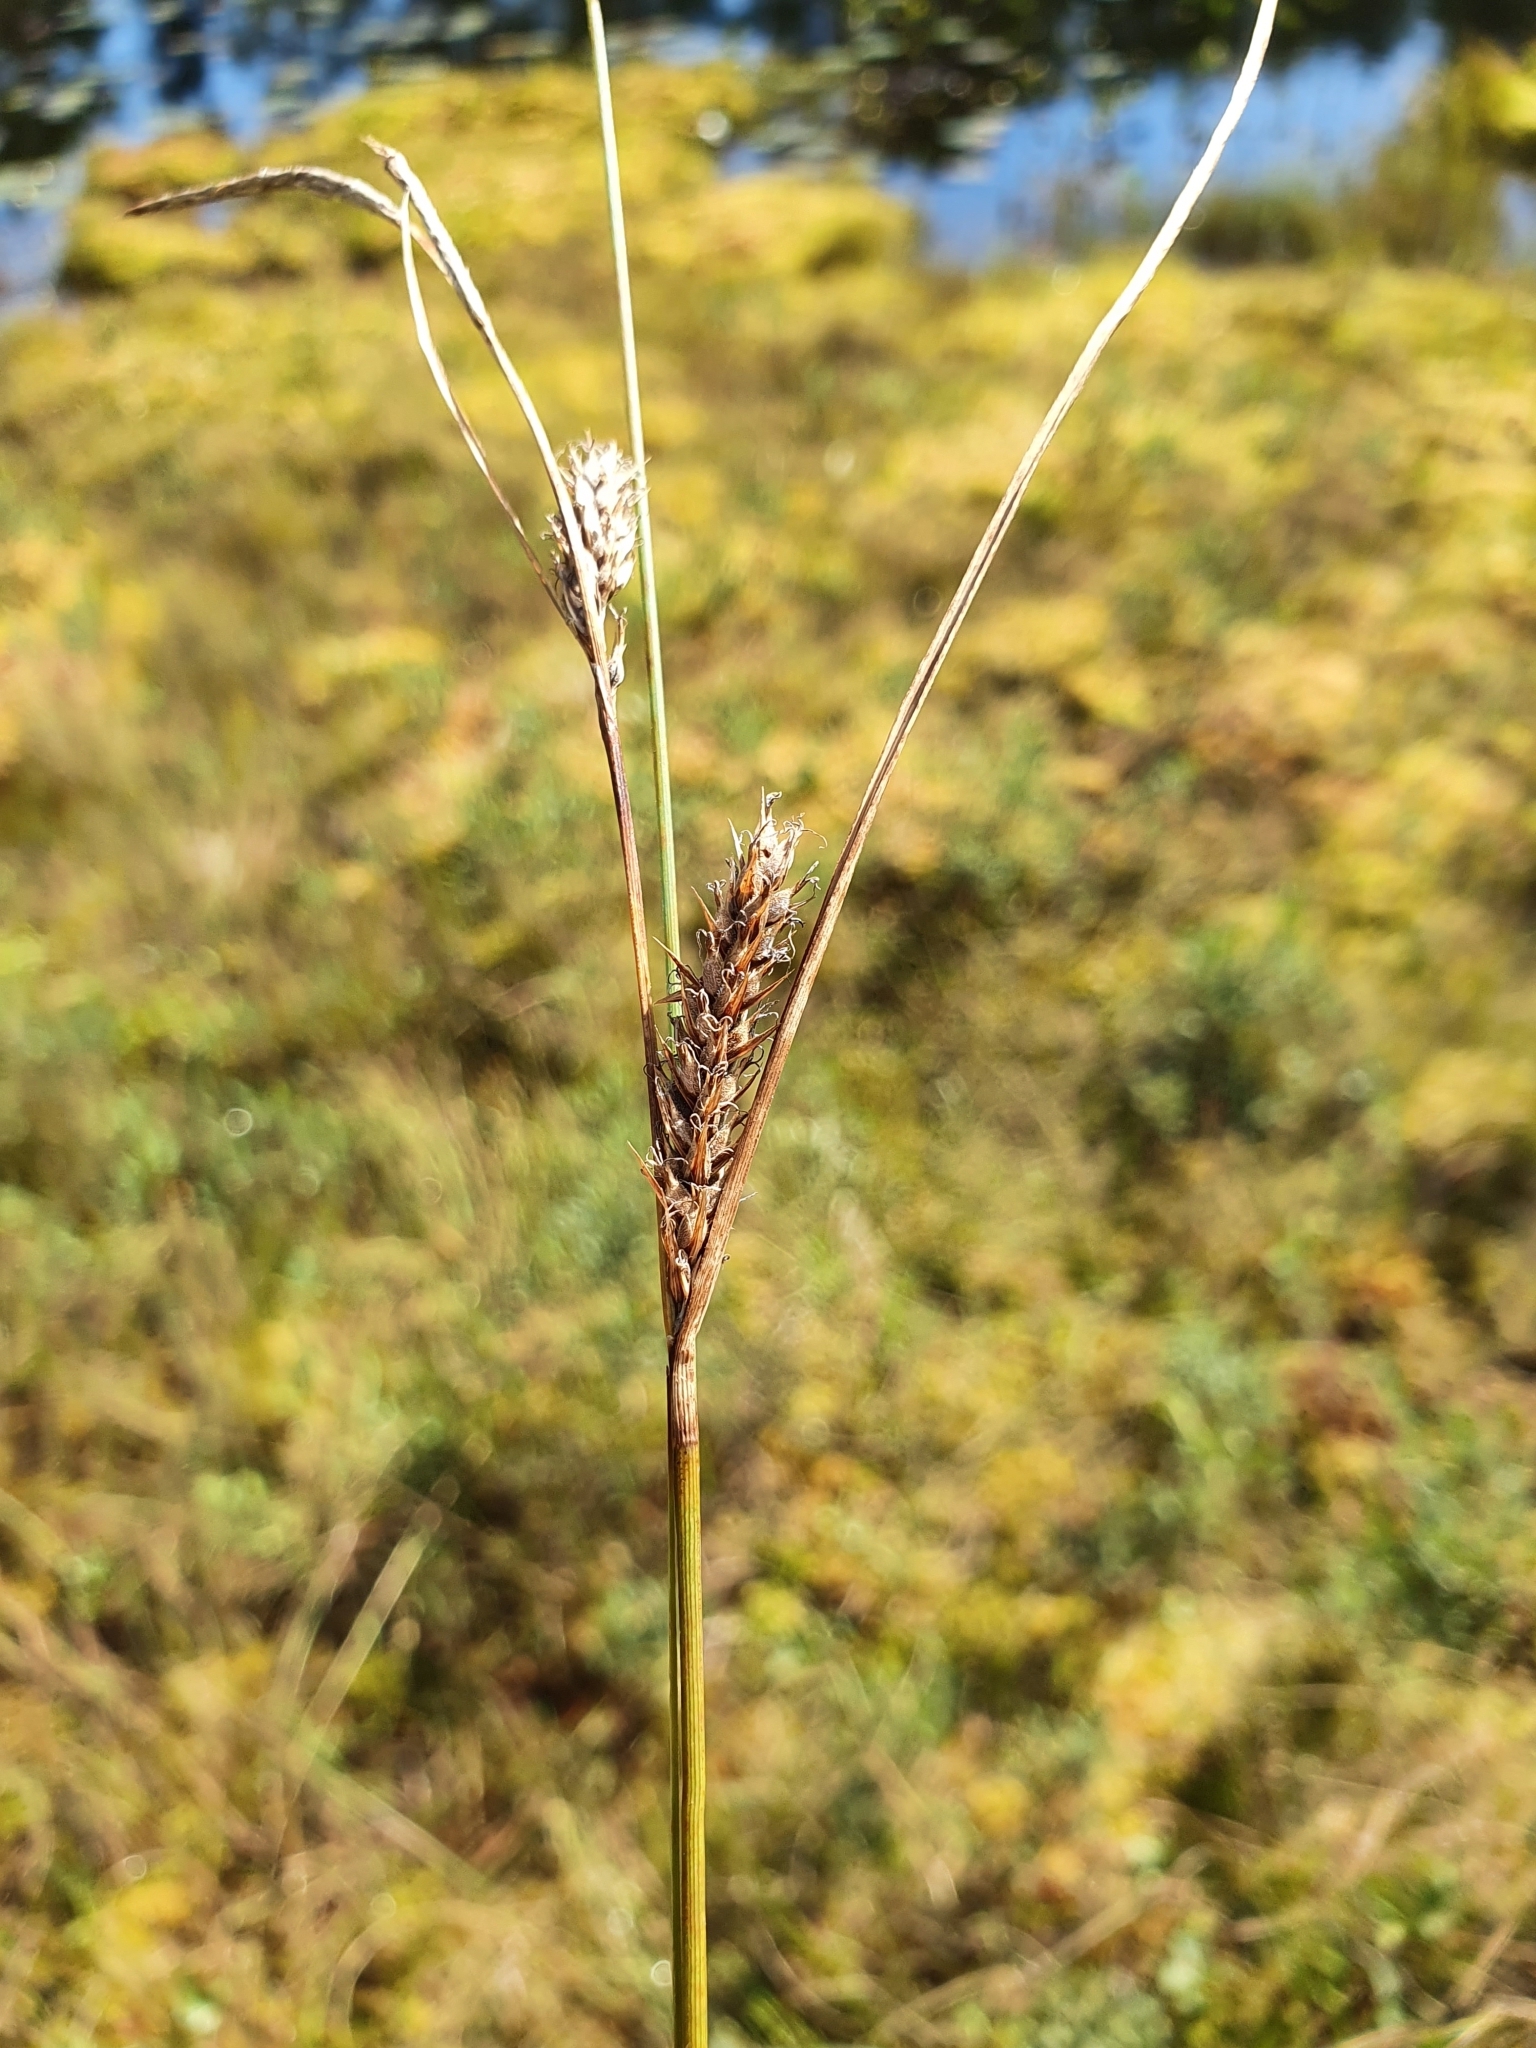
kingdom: Plantae
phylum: Tracheophyta
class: Liliopsida
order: Poales
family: Cyperaceae
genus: Carex
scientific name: Carex lasiocarpa
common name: Slender sedge
